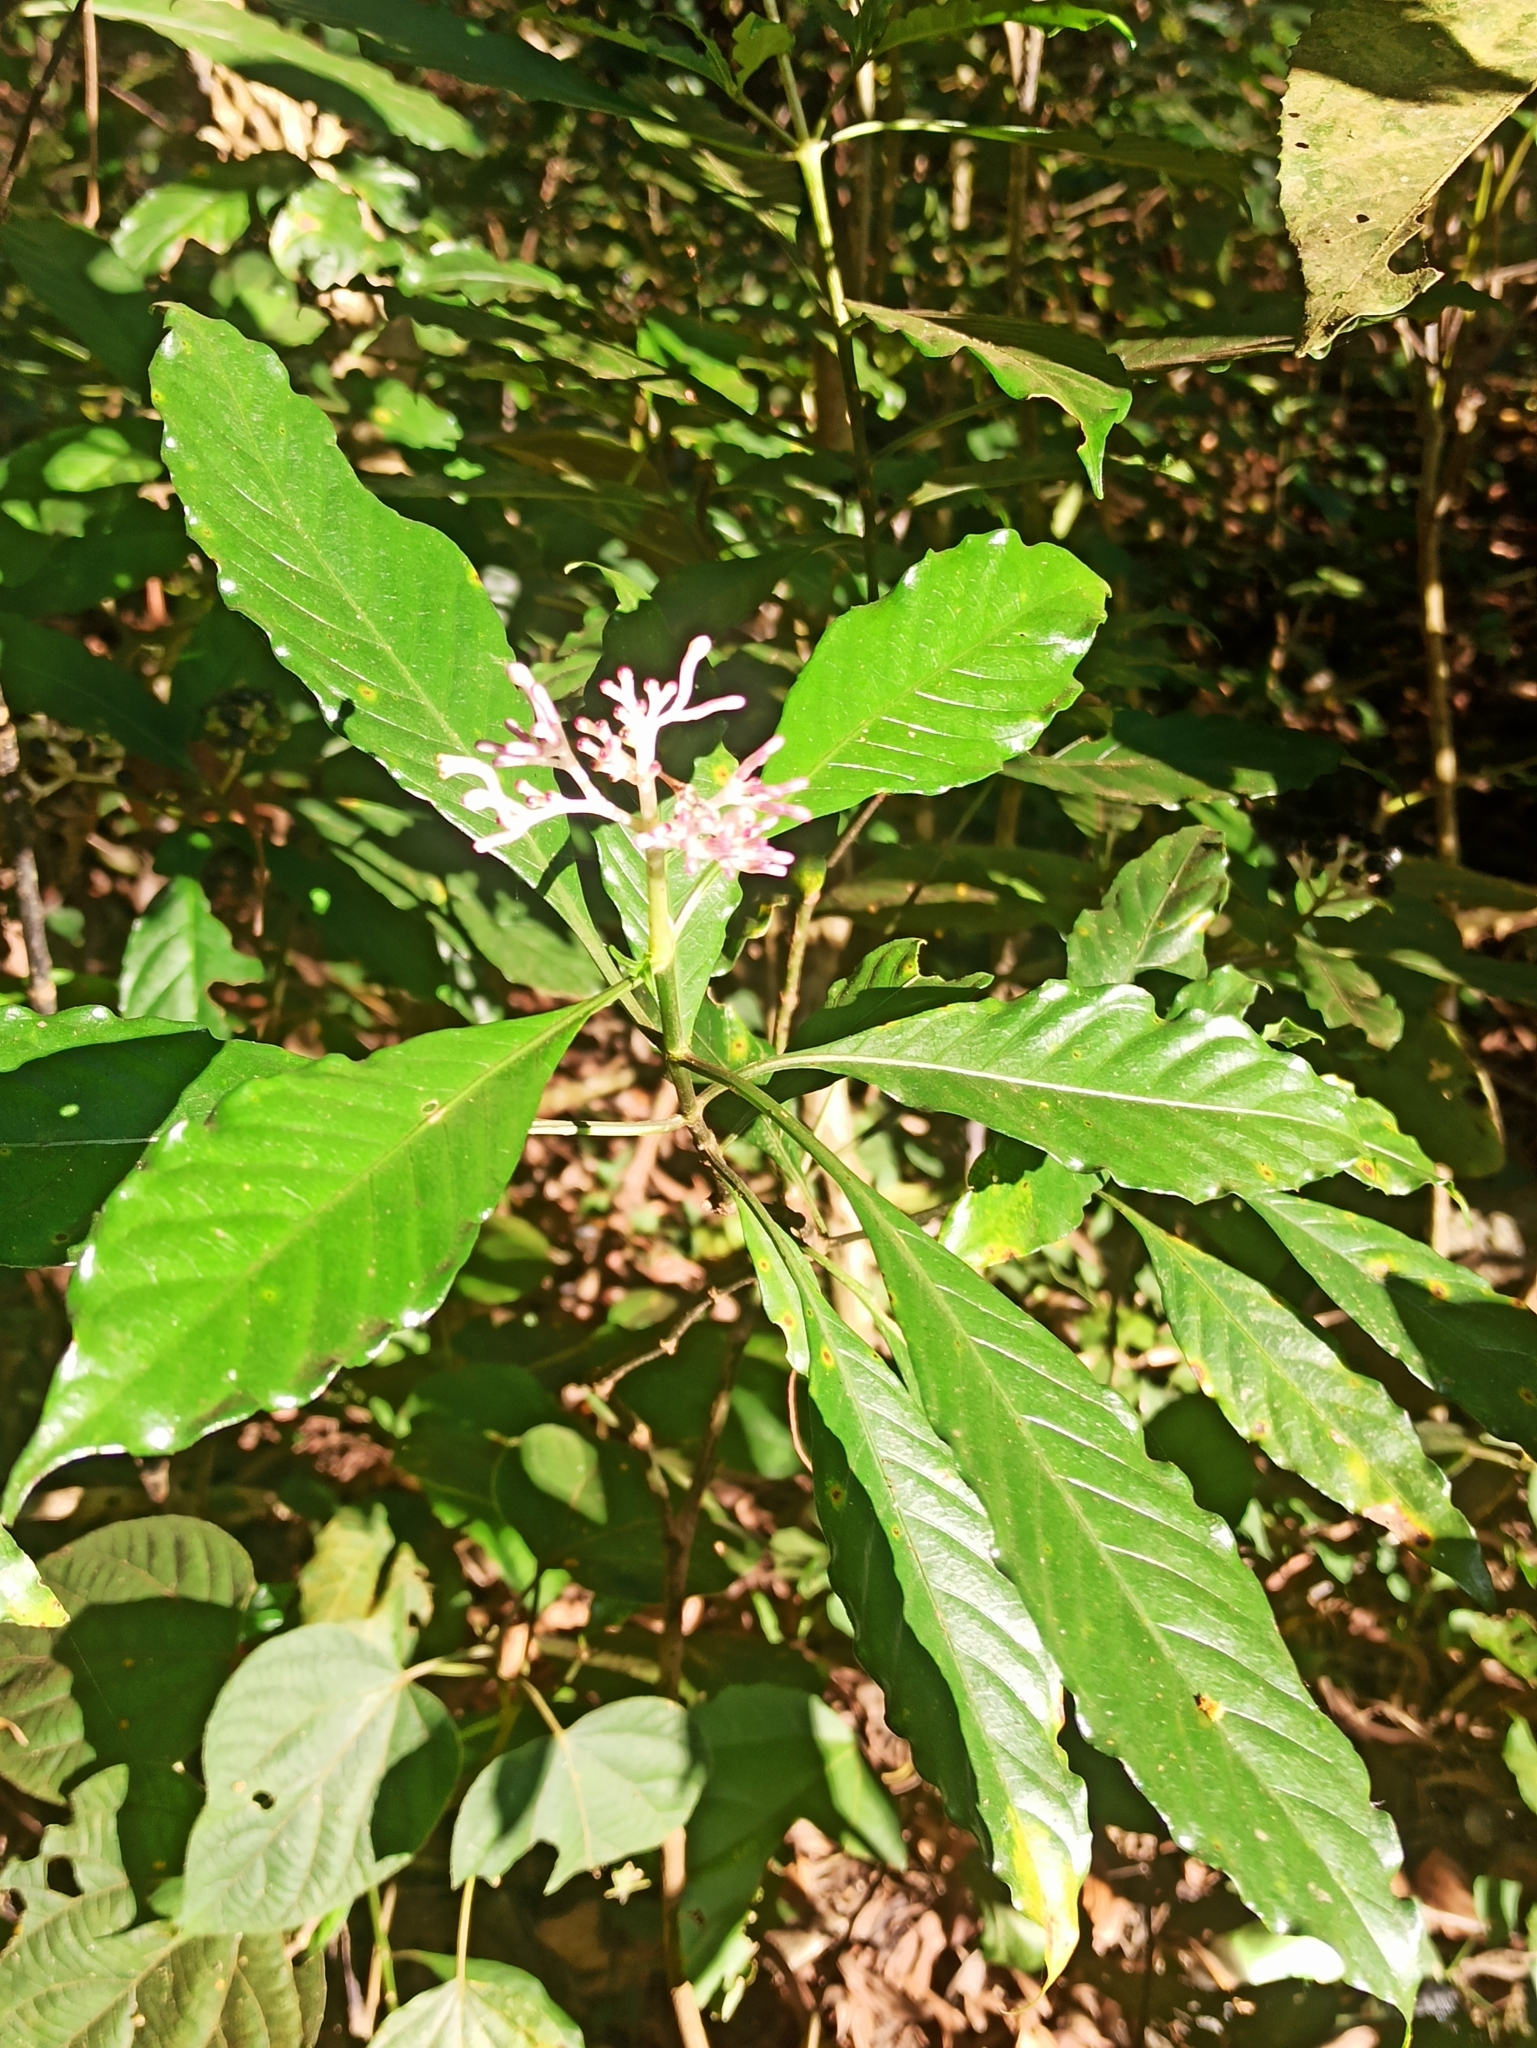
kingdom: Plantae
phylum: Tracheophyta
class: Magnoliopsida
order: Gentianales
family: Rubiaceae
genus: Chassalia
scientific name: Chassalia curviflora
